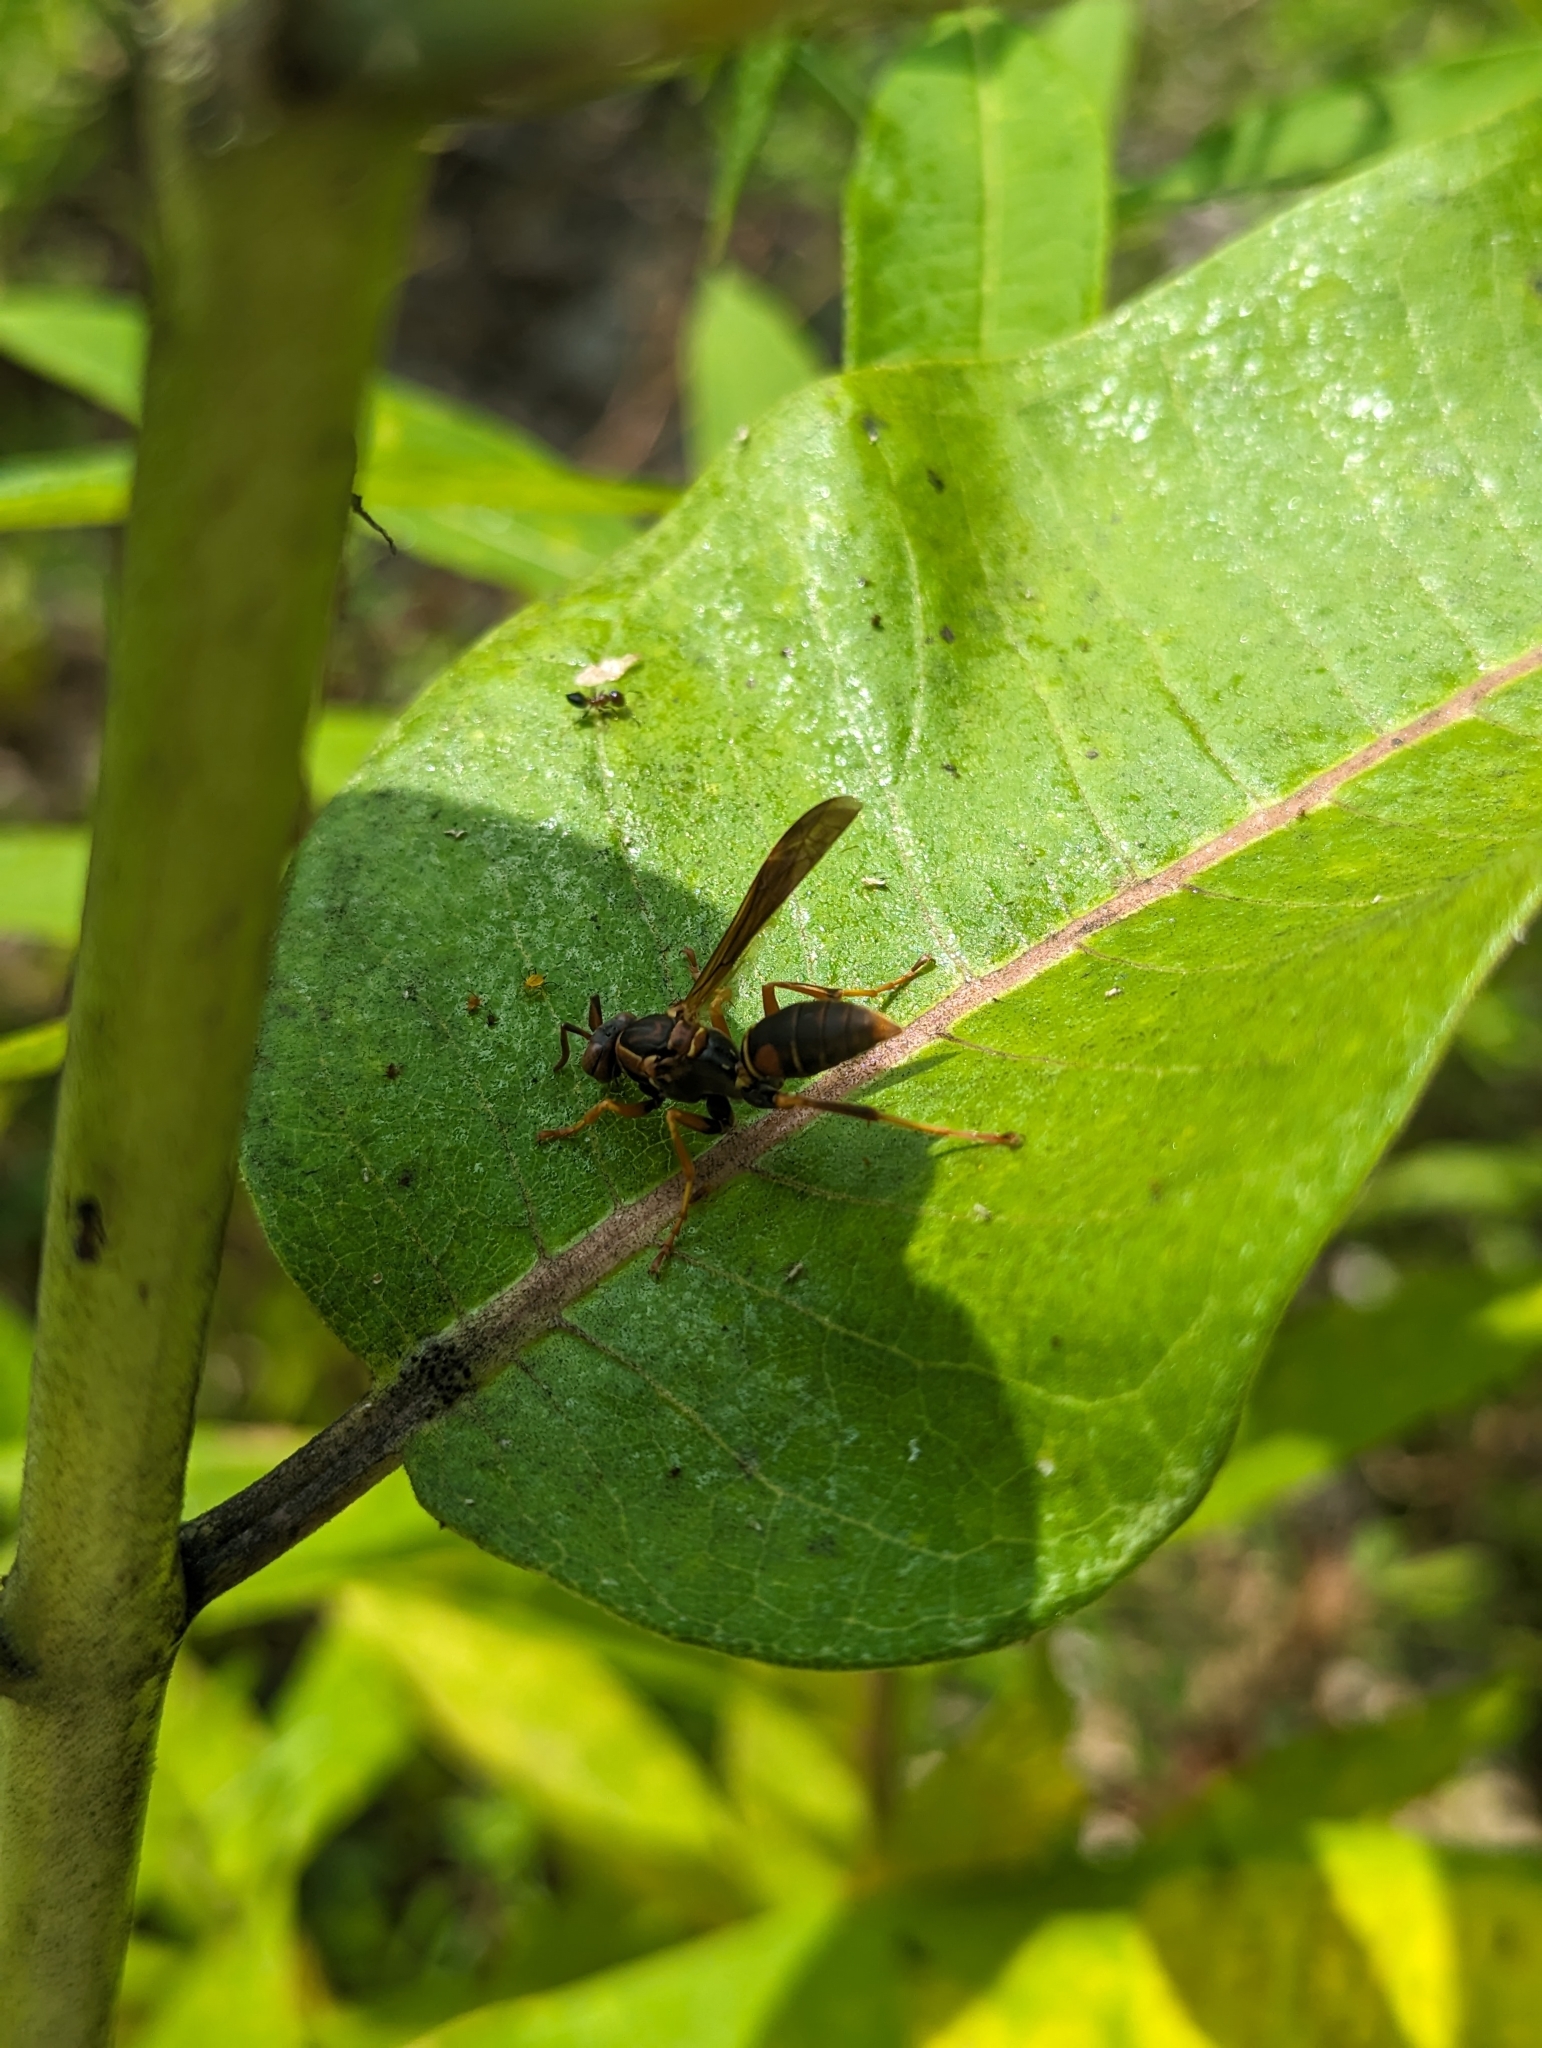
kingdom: Animalia
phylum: Arthropoda
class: Insecta
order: Hymenoptera
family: Eumenidae
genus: Polistes
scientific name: Polistes fuscatus
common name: Dark paper wasp
